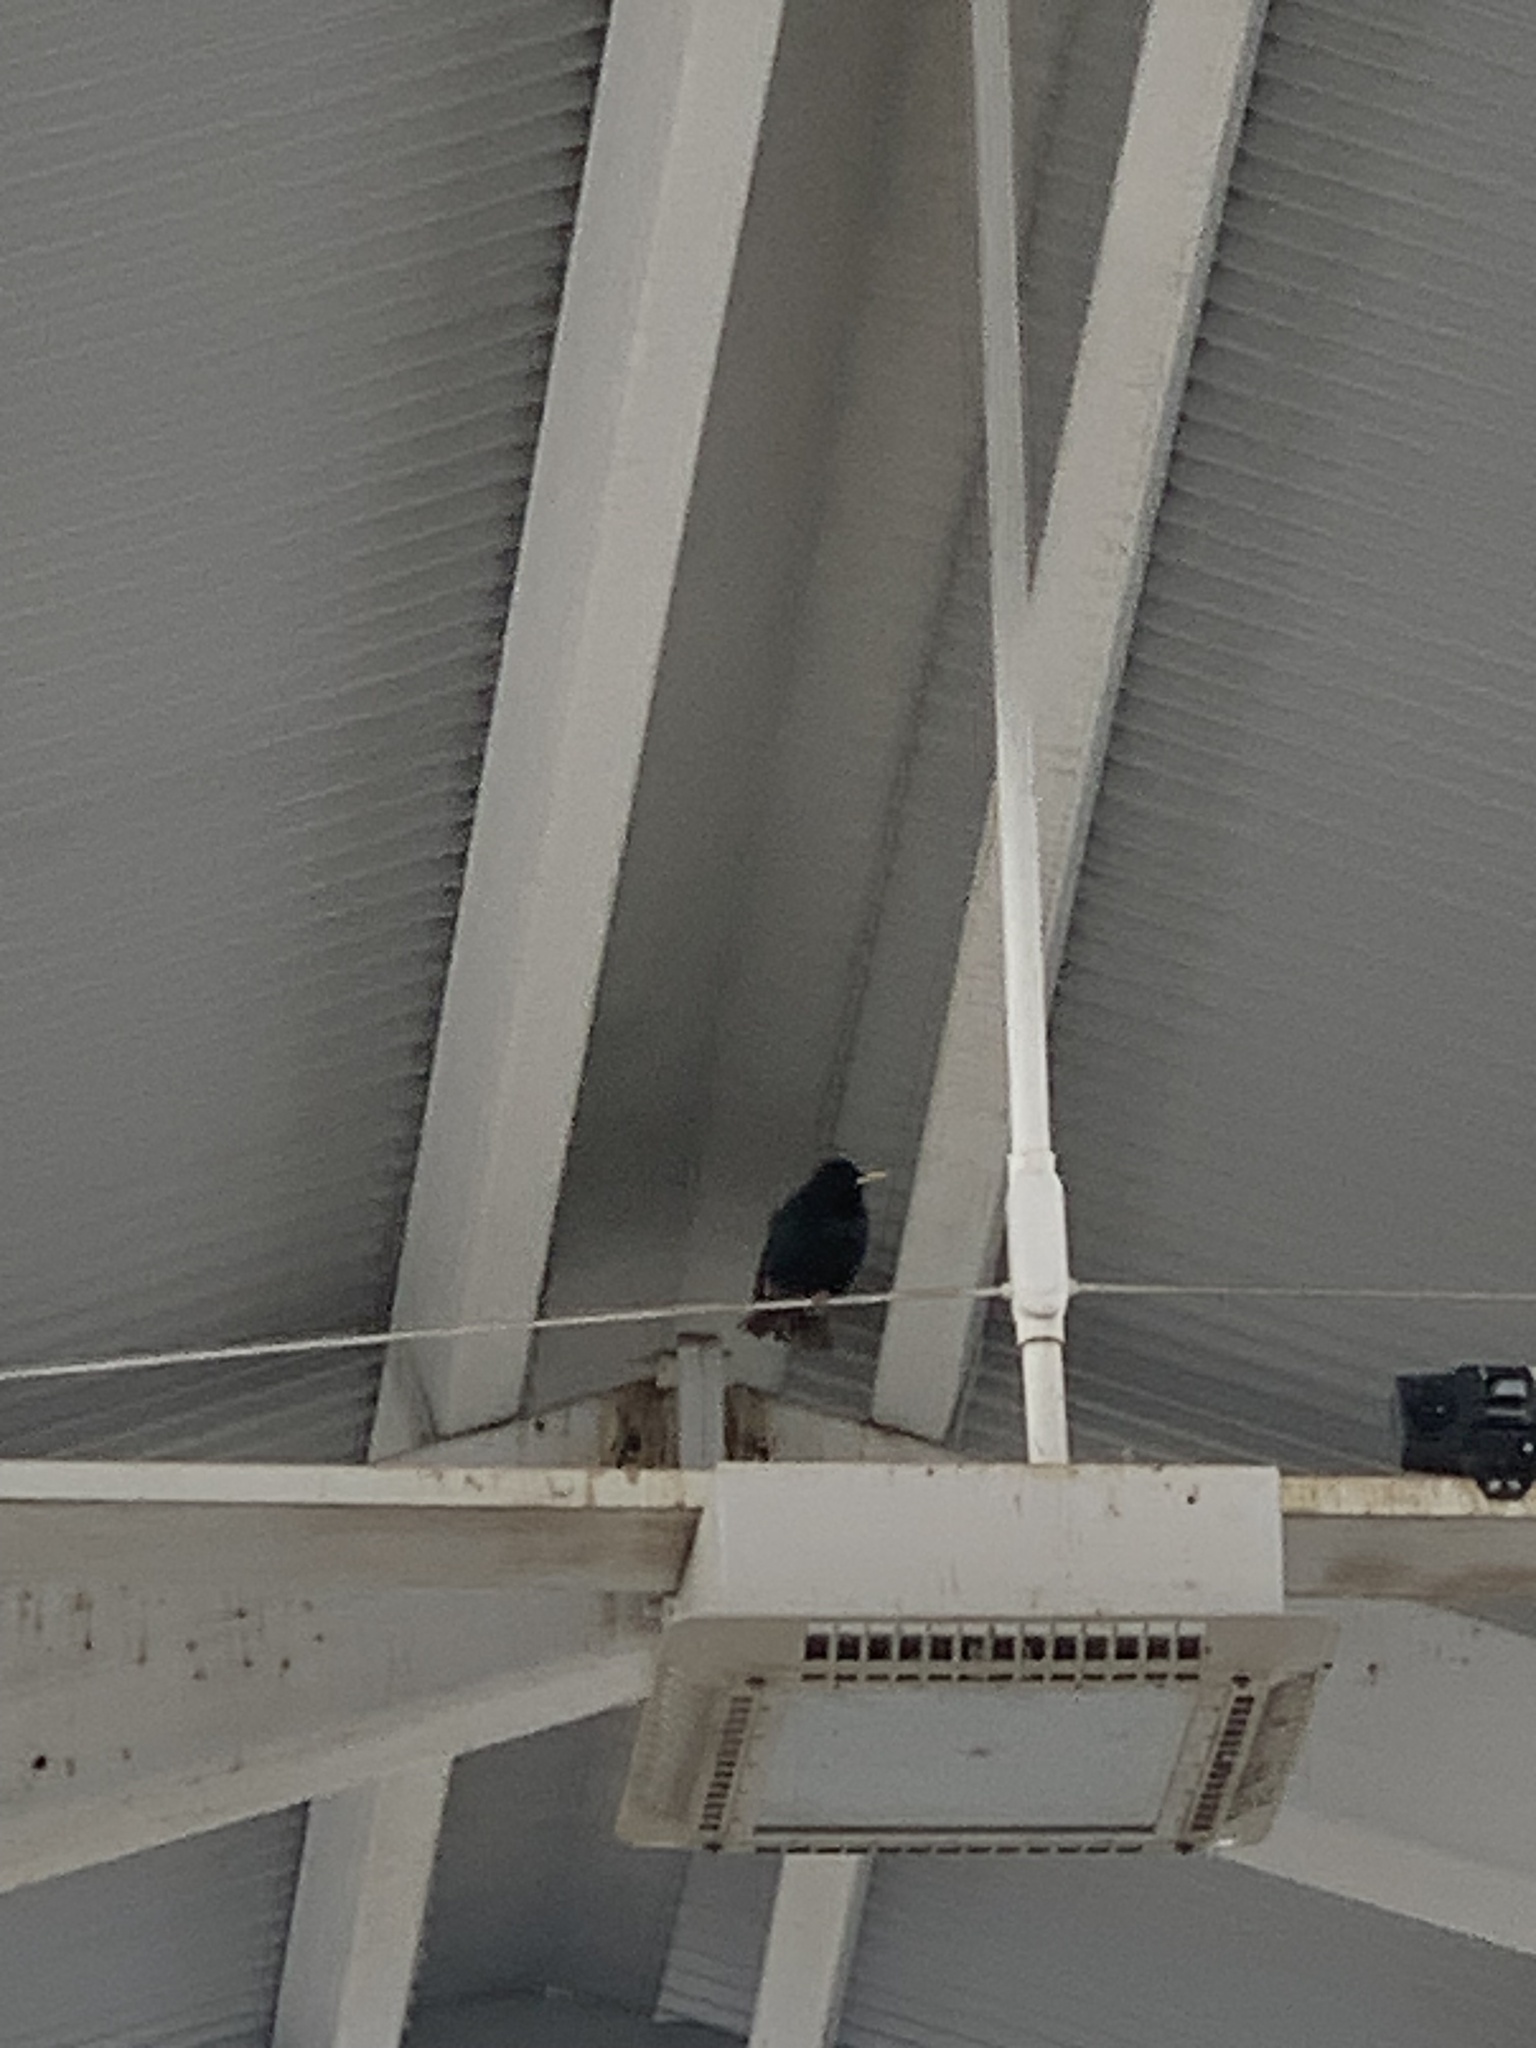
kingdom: Animalia
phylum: Chordata
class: Aves
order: Passeriformes
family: Sturnidae
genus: Sturnus
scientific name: Sturnus vulgaris
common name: Common starling
